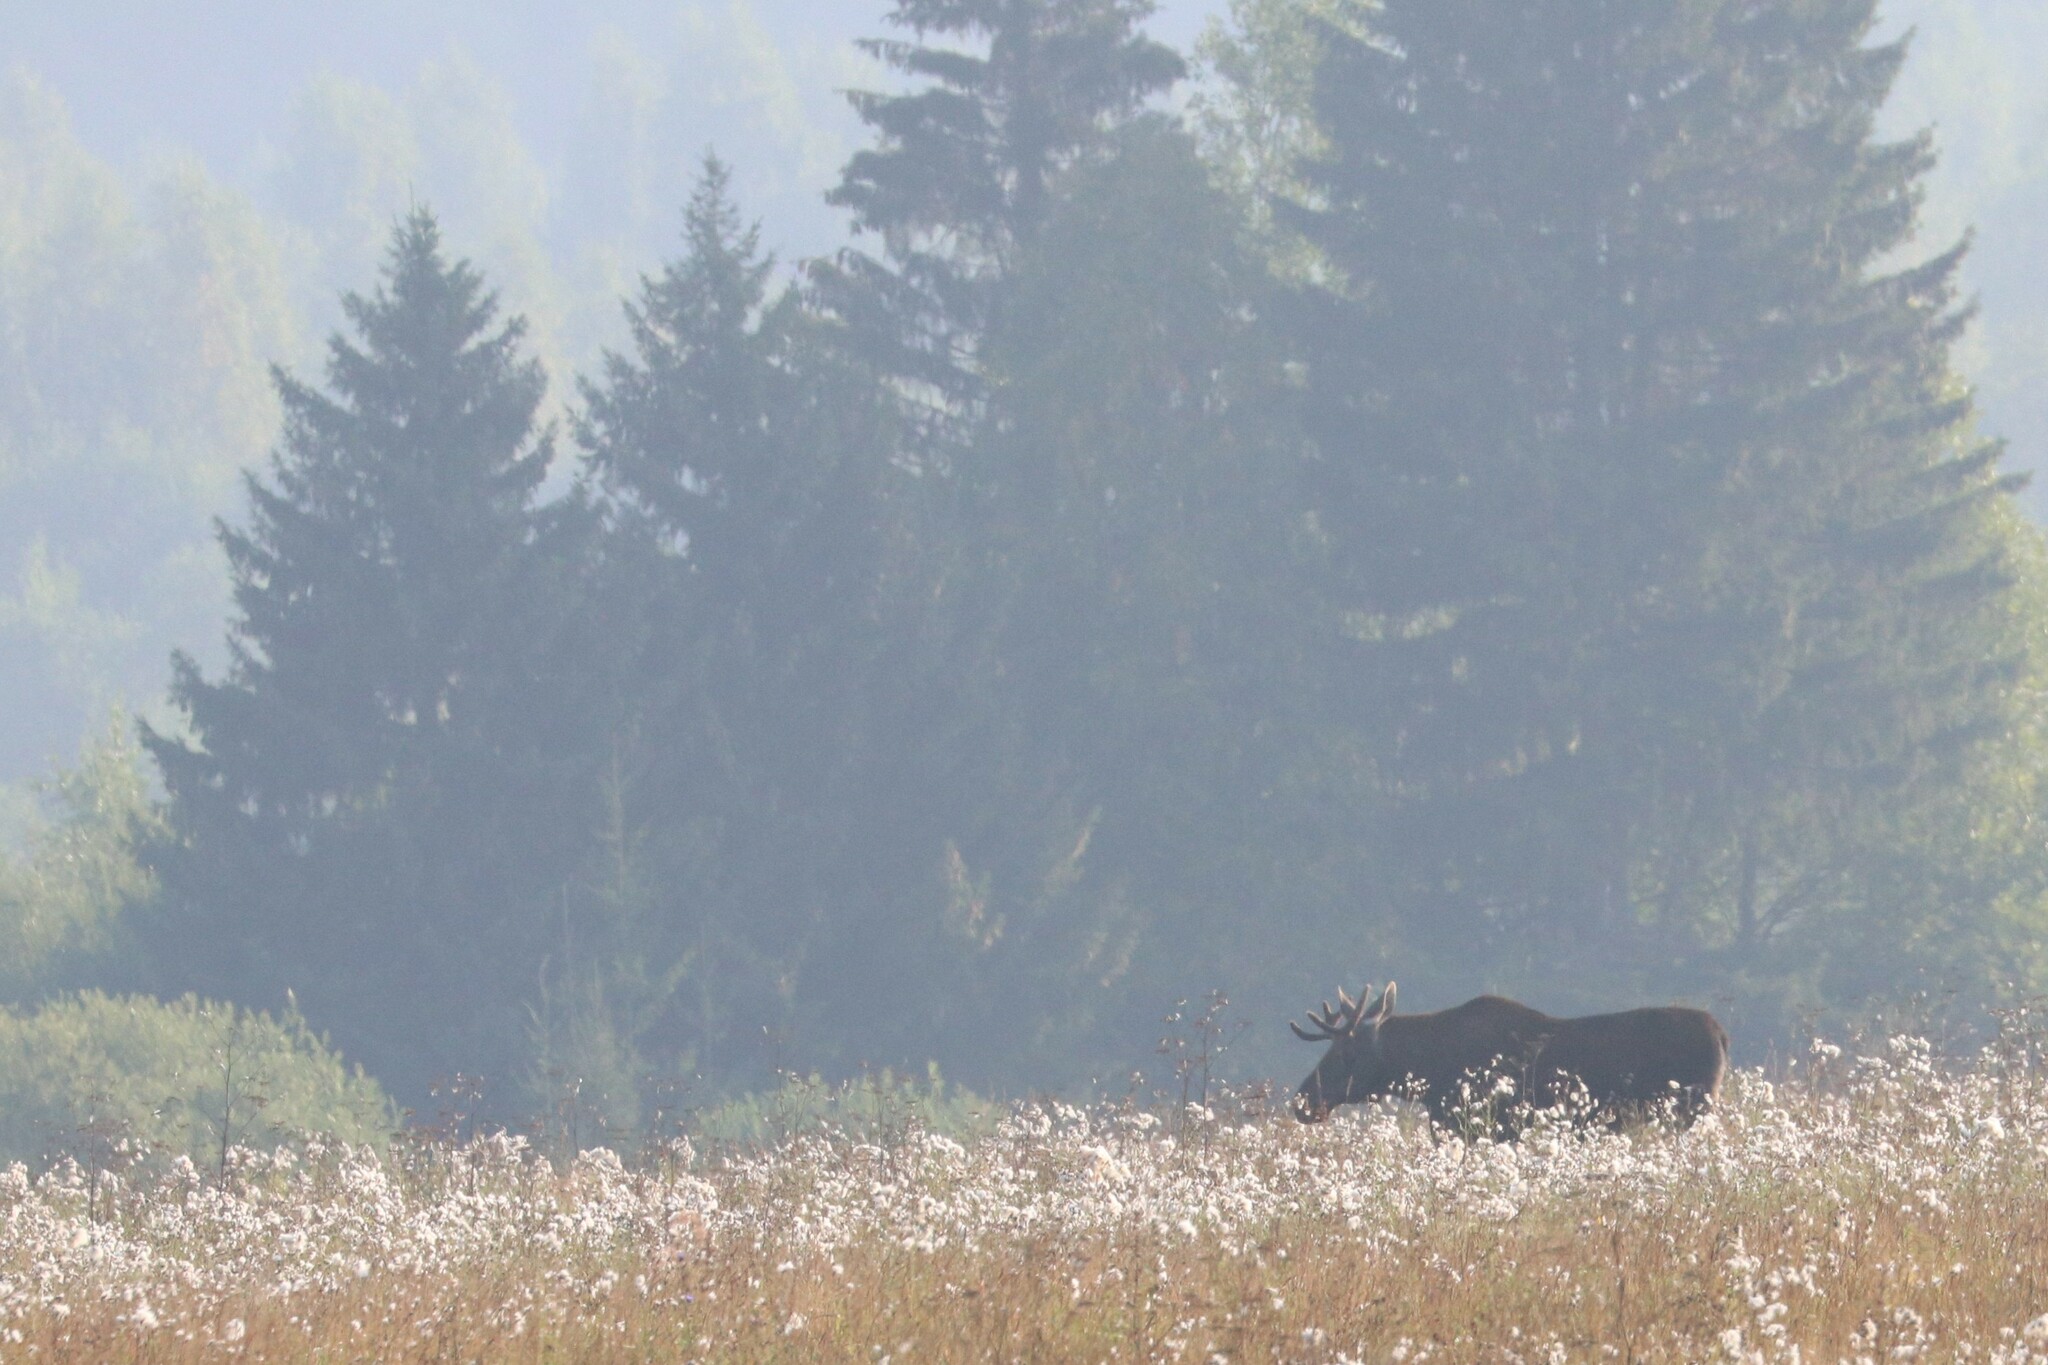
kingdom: Animalia
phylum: Chordata
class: Mammalia
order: Artiodactyla
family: Cervidae
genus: Alces
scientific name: Alces alces
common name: Moose
